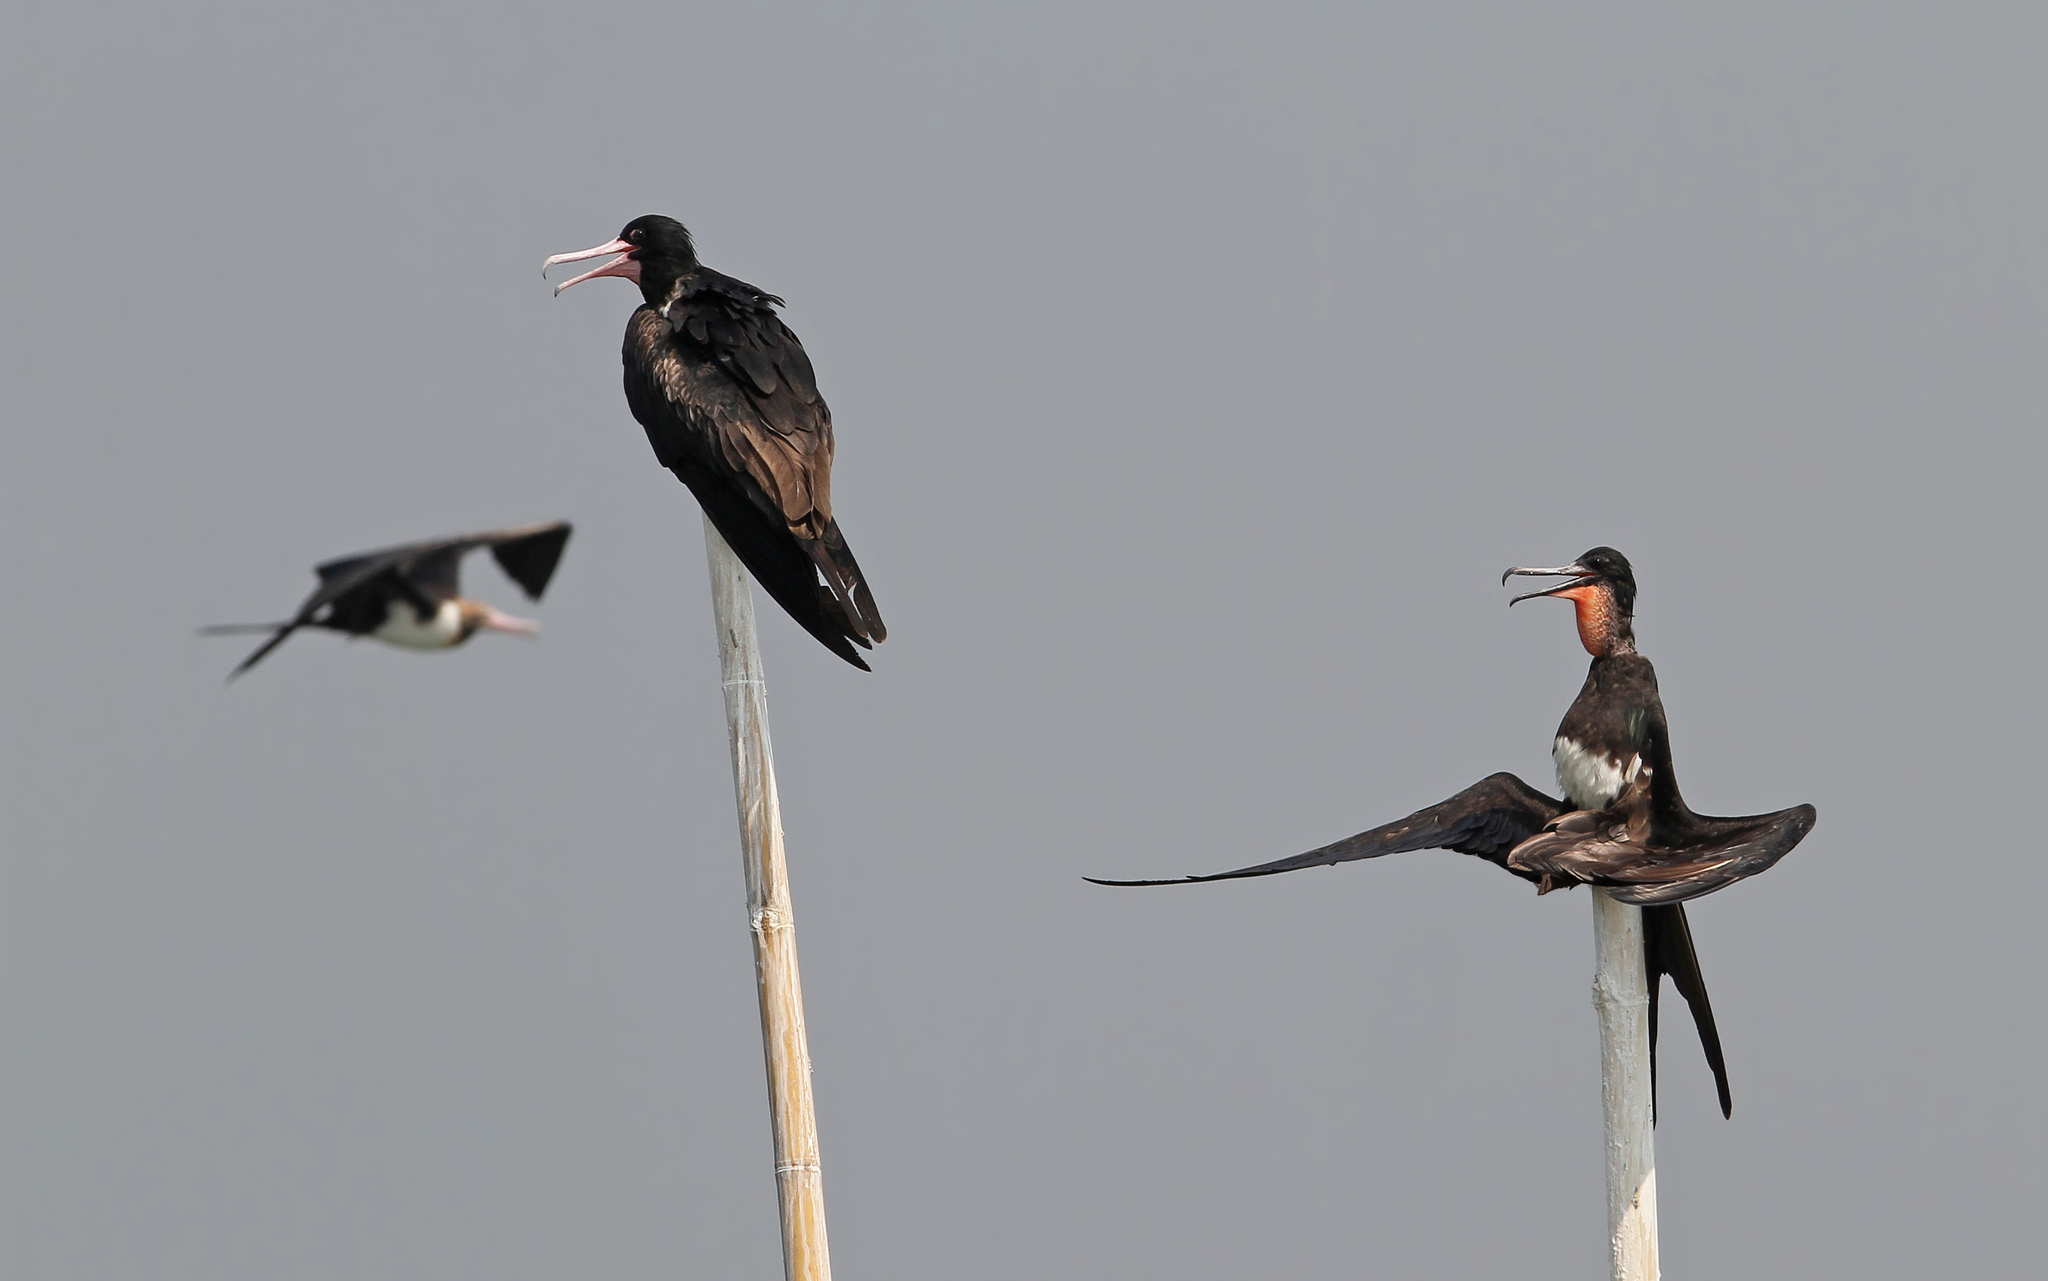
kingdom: Animalia
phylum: Chordata
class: Aves
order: Suliformes
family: Fregatidae
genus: Fregata
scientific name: Fregata andrewsi
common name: Christmas frigatebird
